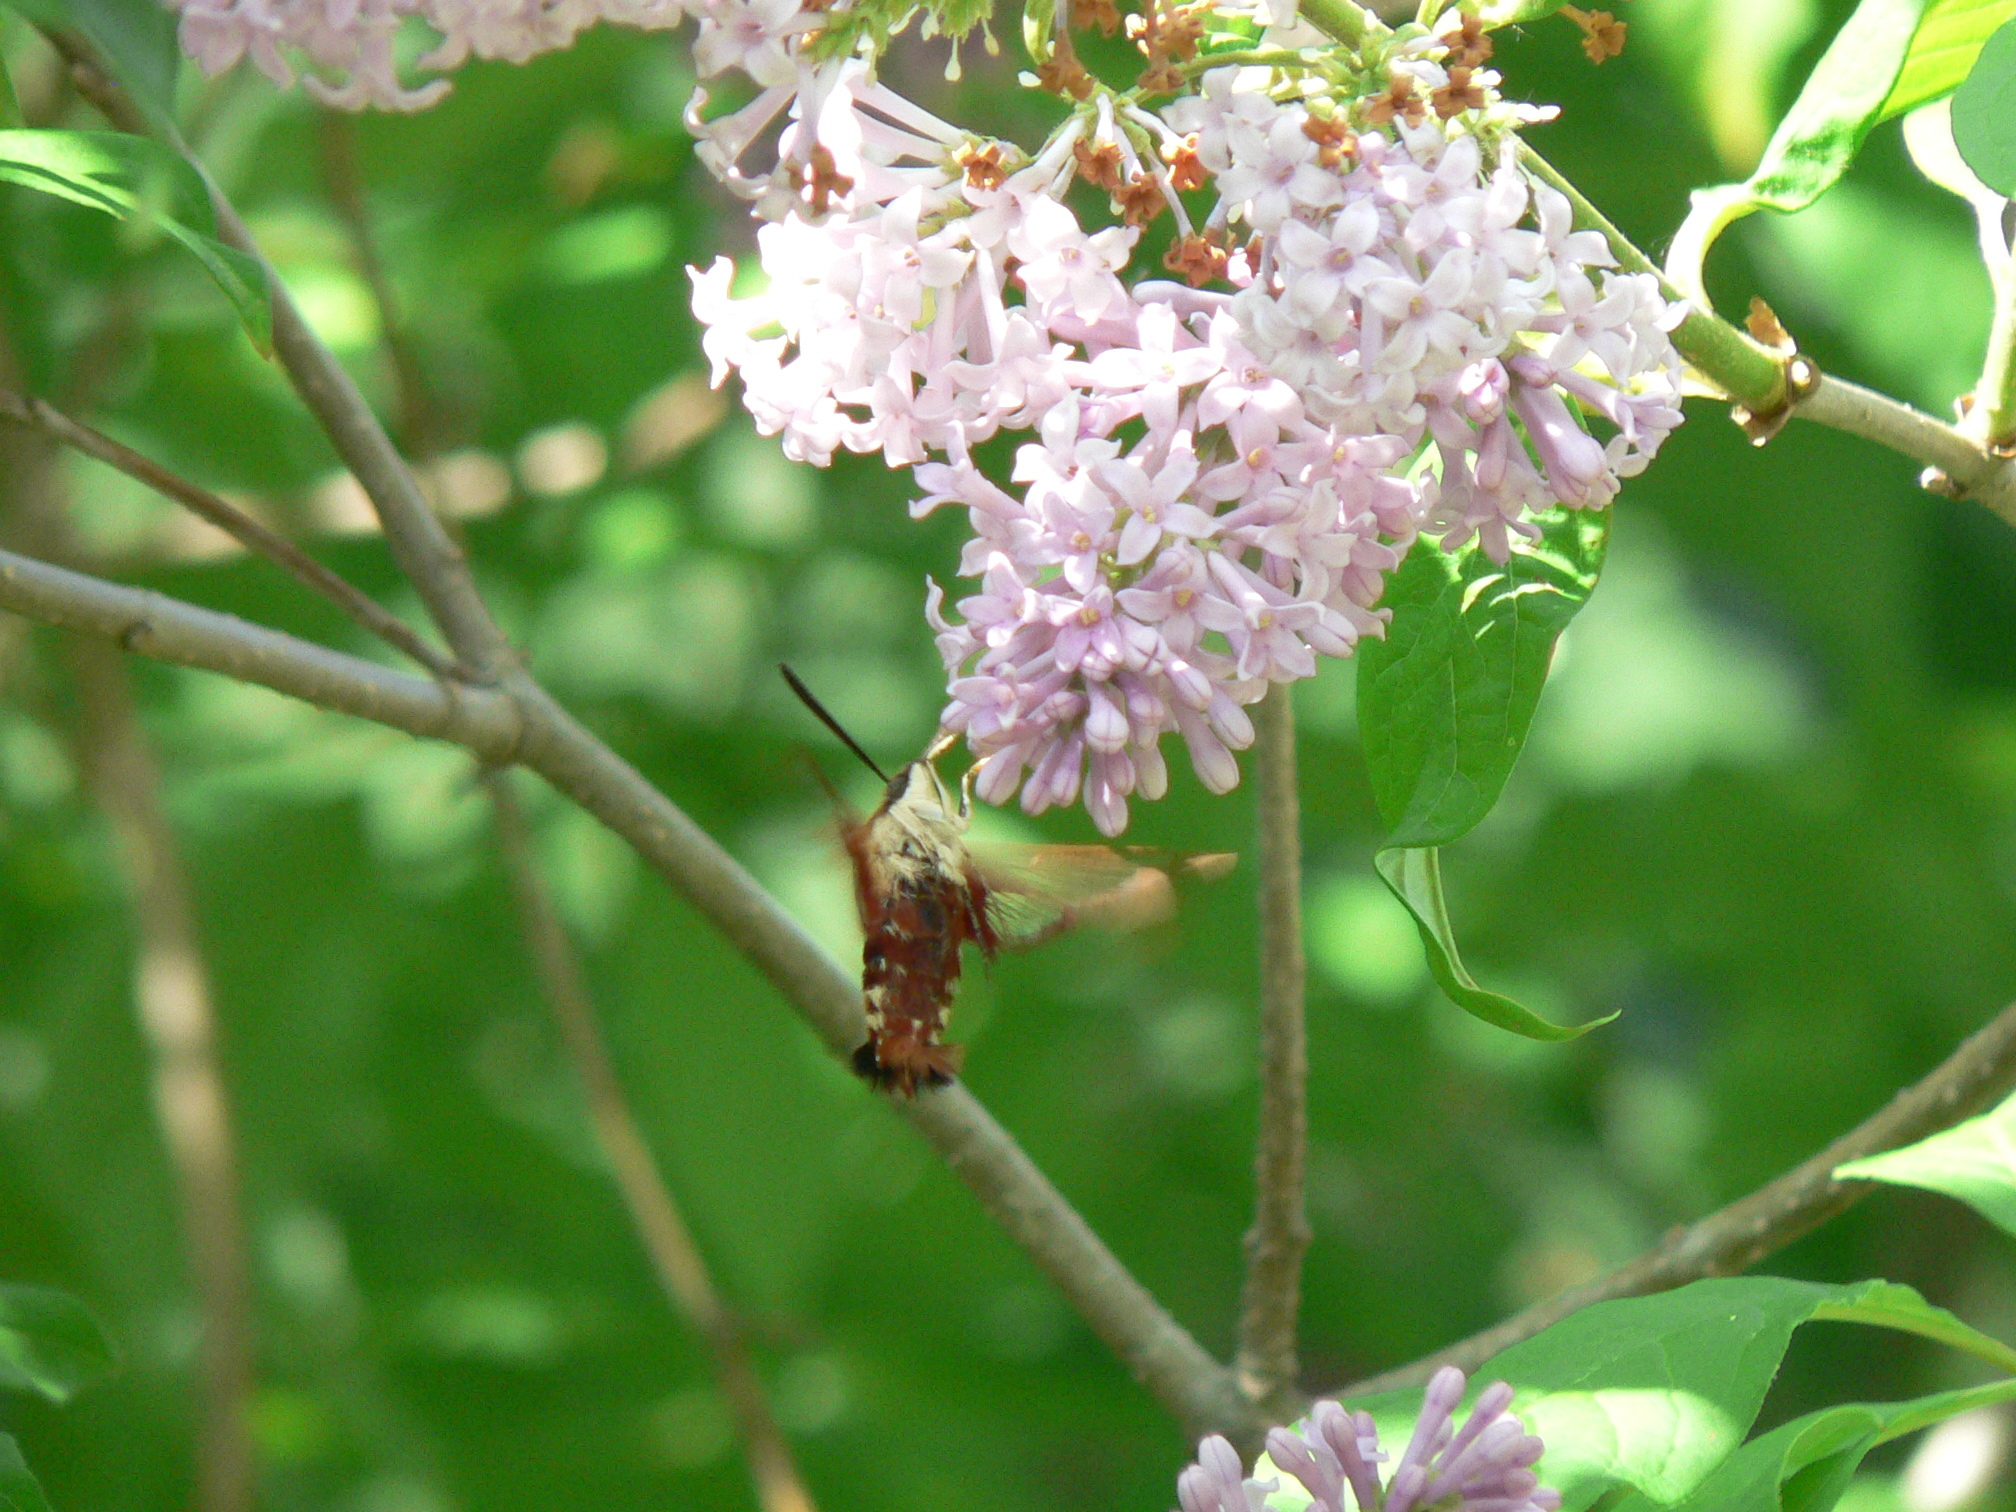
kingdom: Animalia
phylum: Arthropoda
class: Insecta
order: Lepidoptera
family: Sphingidae
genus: Hemaris
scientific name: Hemaris thysbe
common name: Common clear-wing
